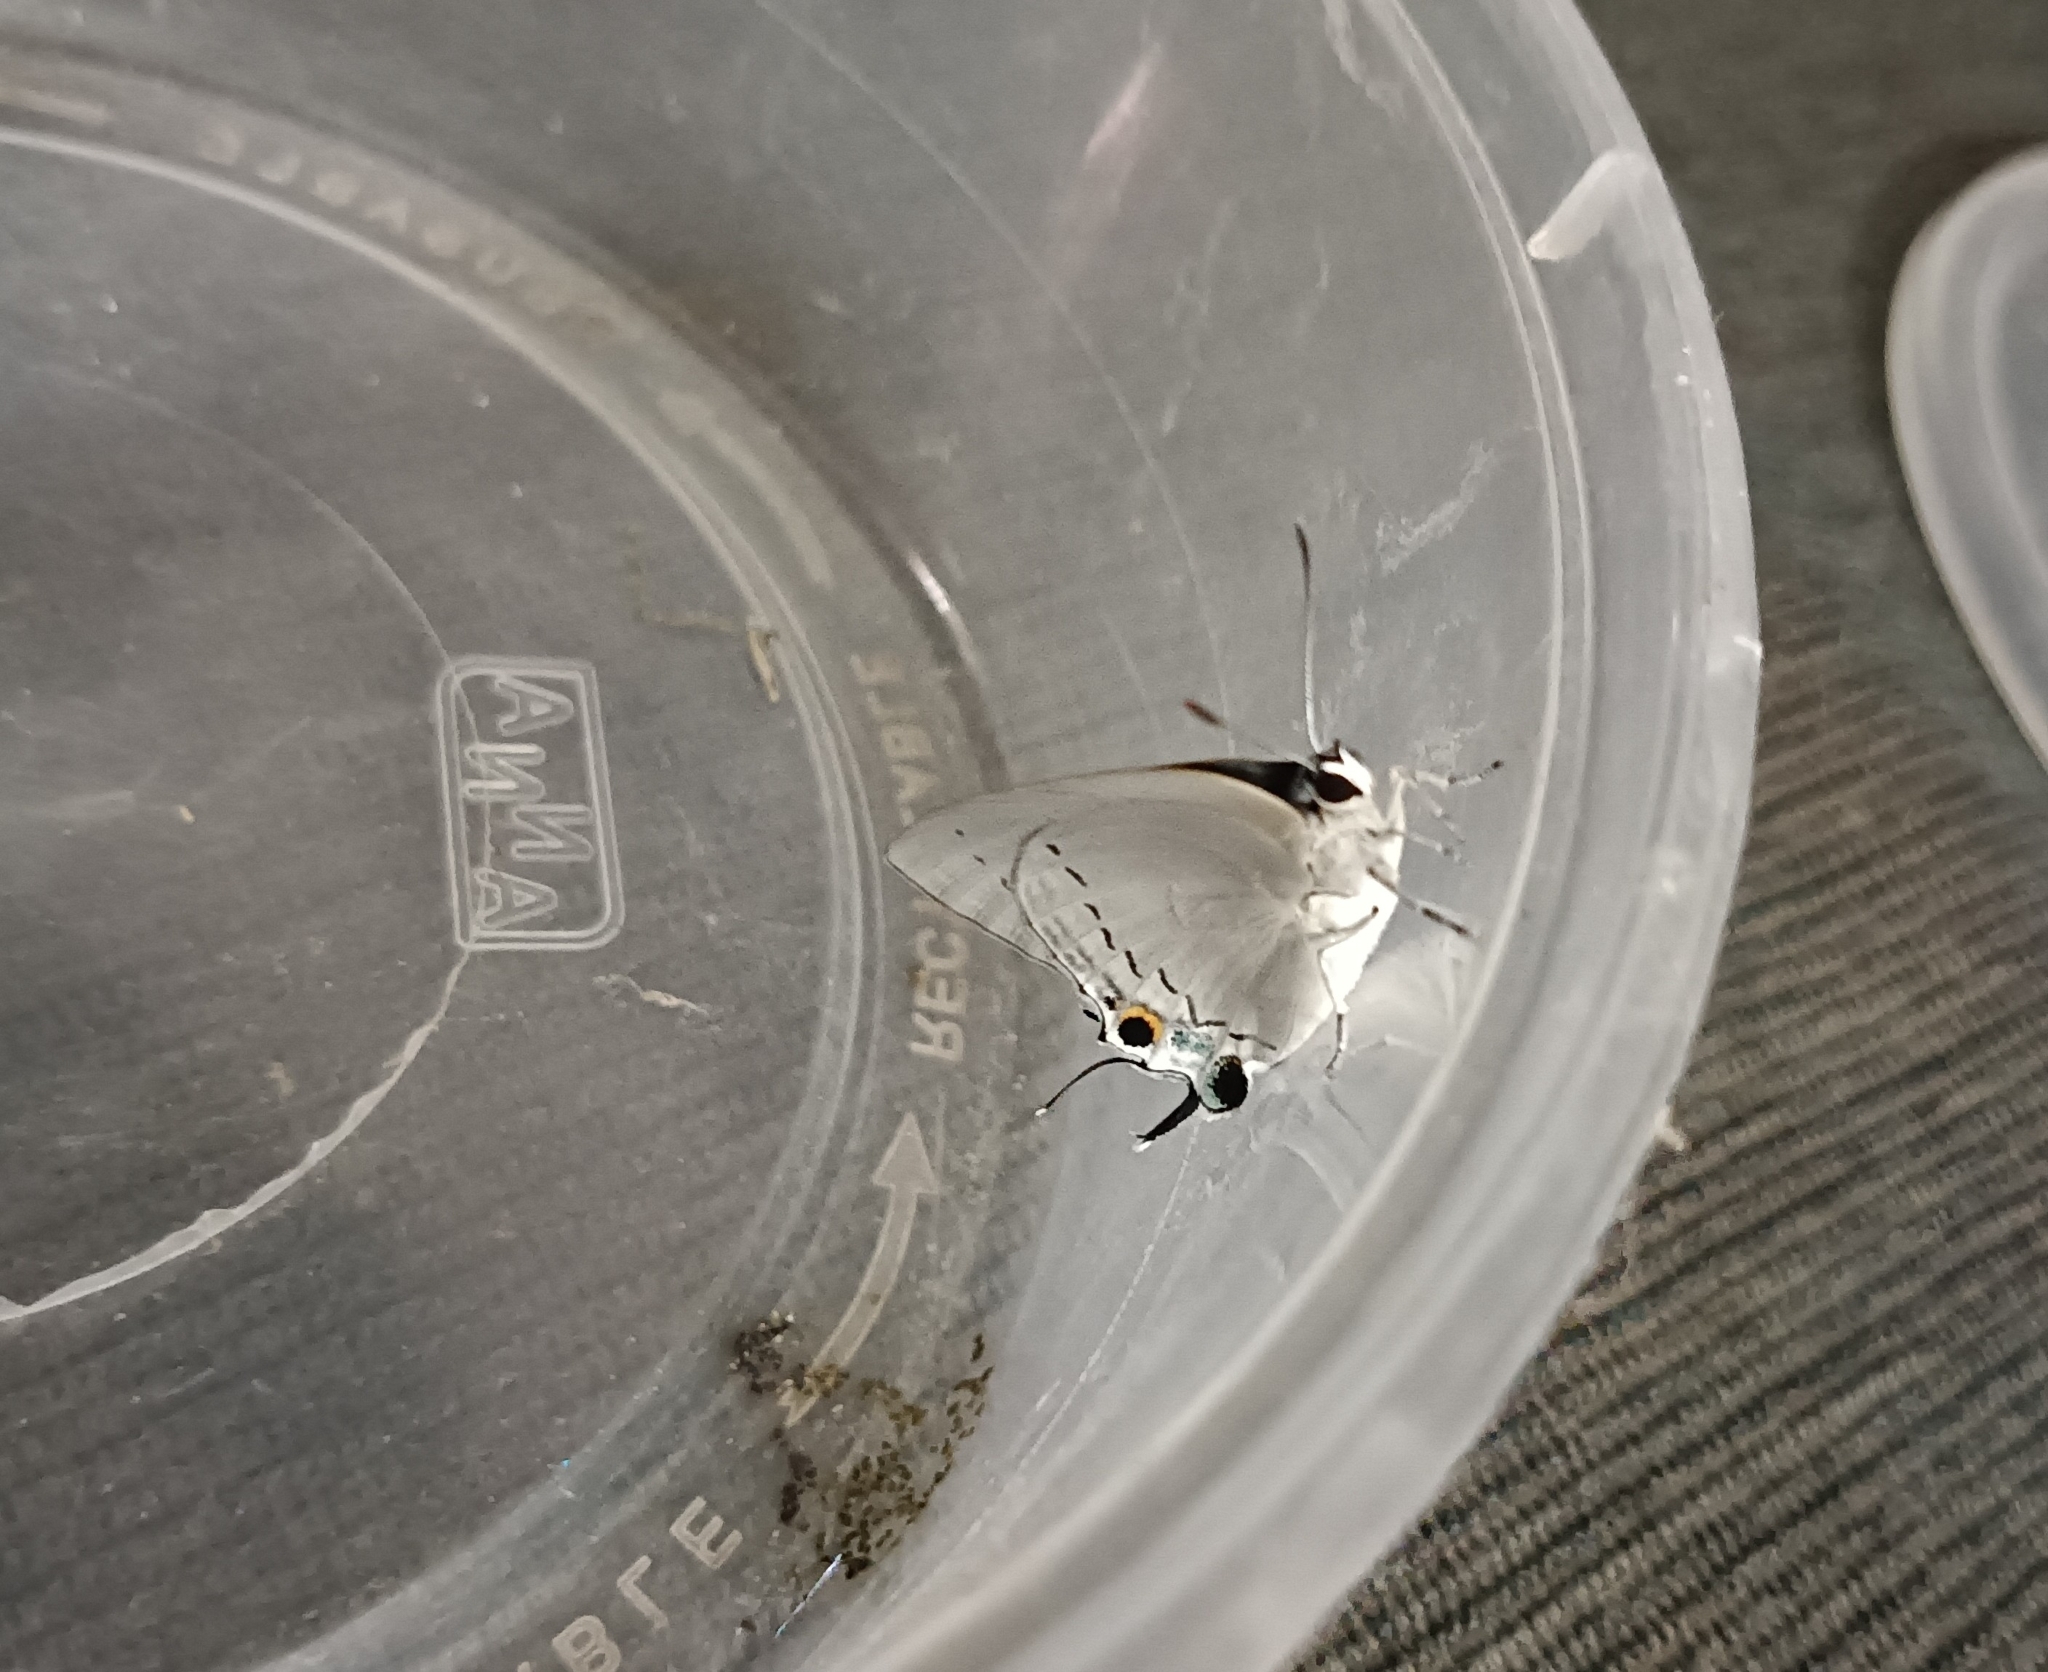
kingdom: Animalia
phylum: Arthropoda
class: Insecta
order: Lepidoptera
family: Lycaenidae
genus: Tajuria
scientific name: Tajuria cippus
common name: Peacock royal
